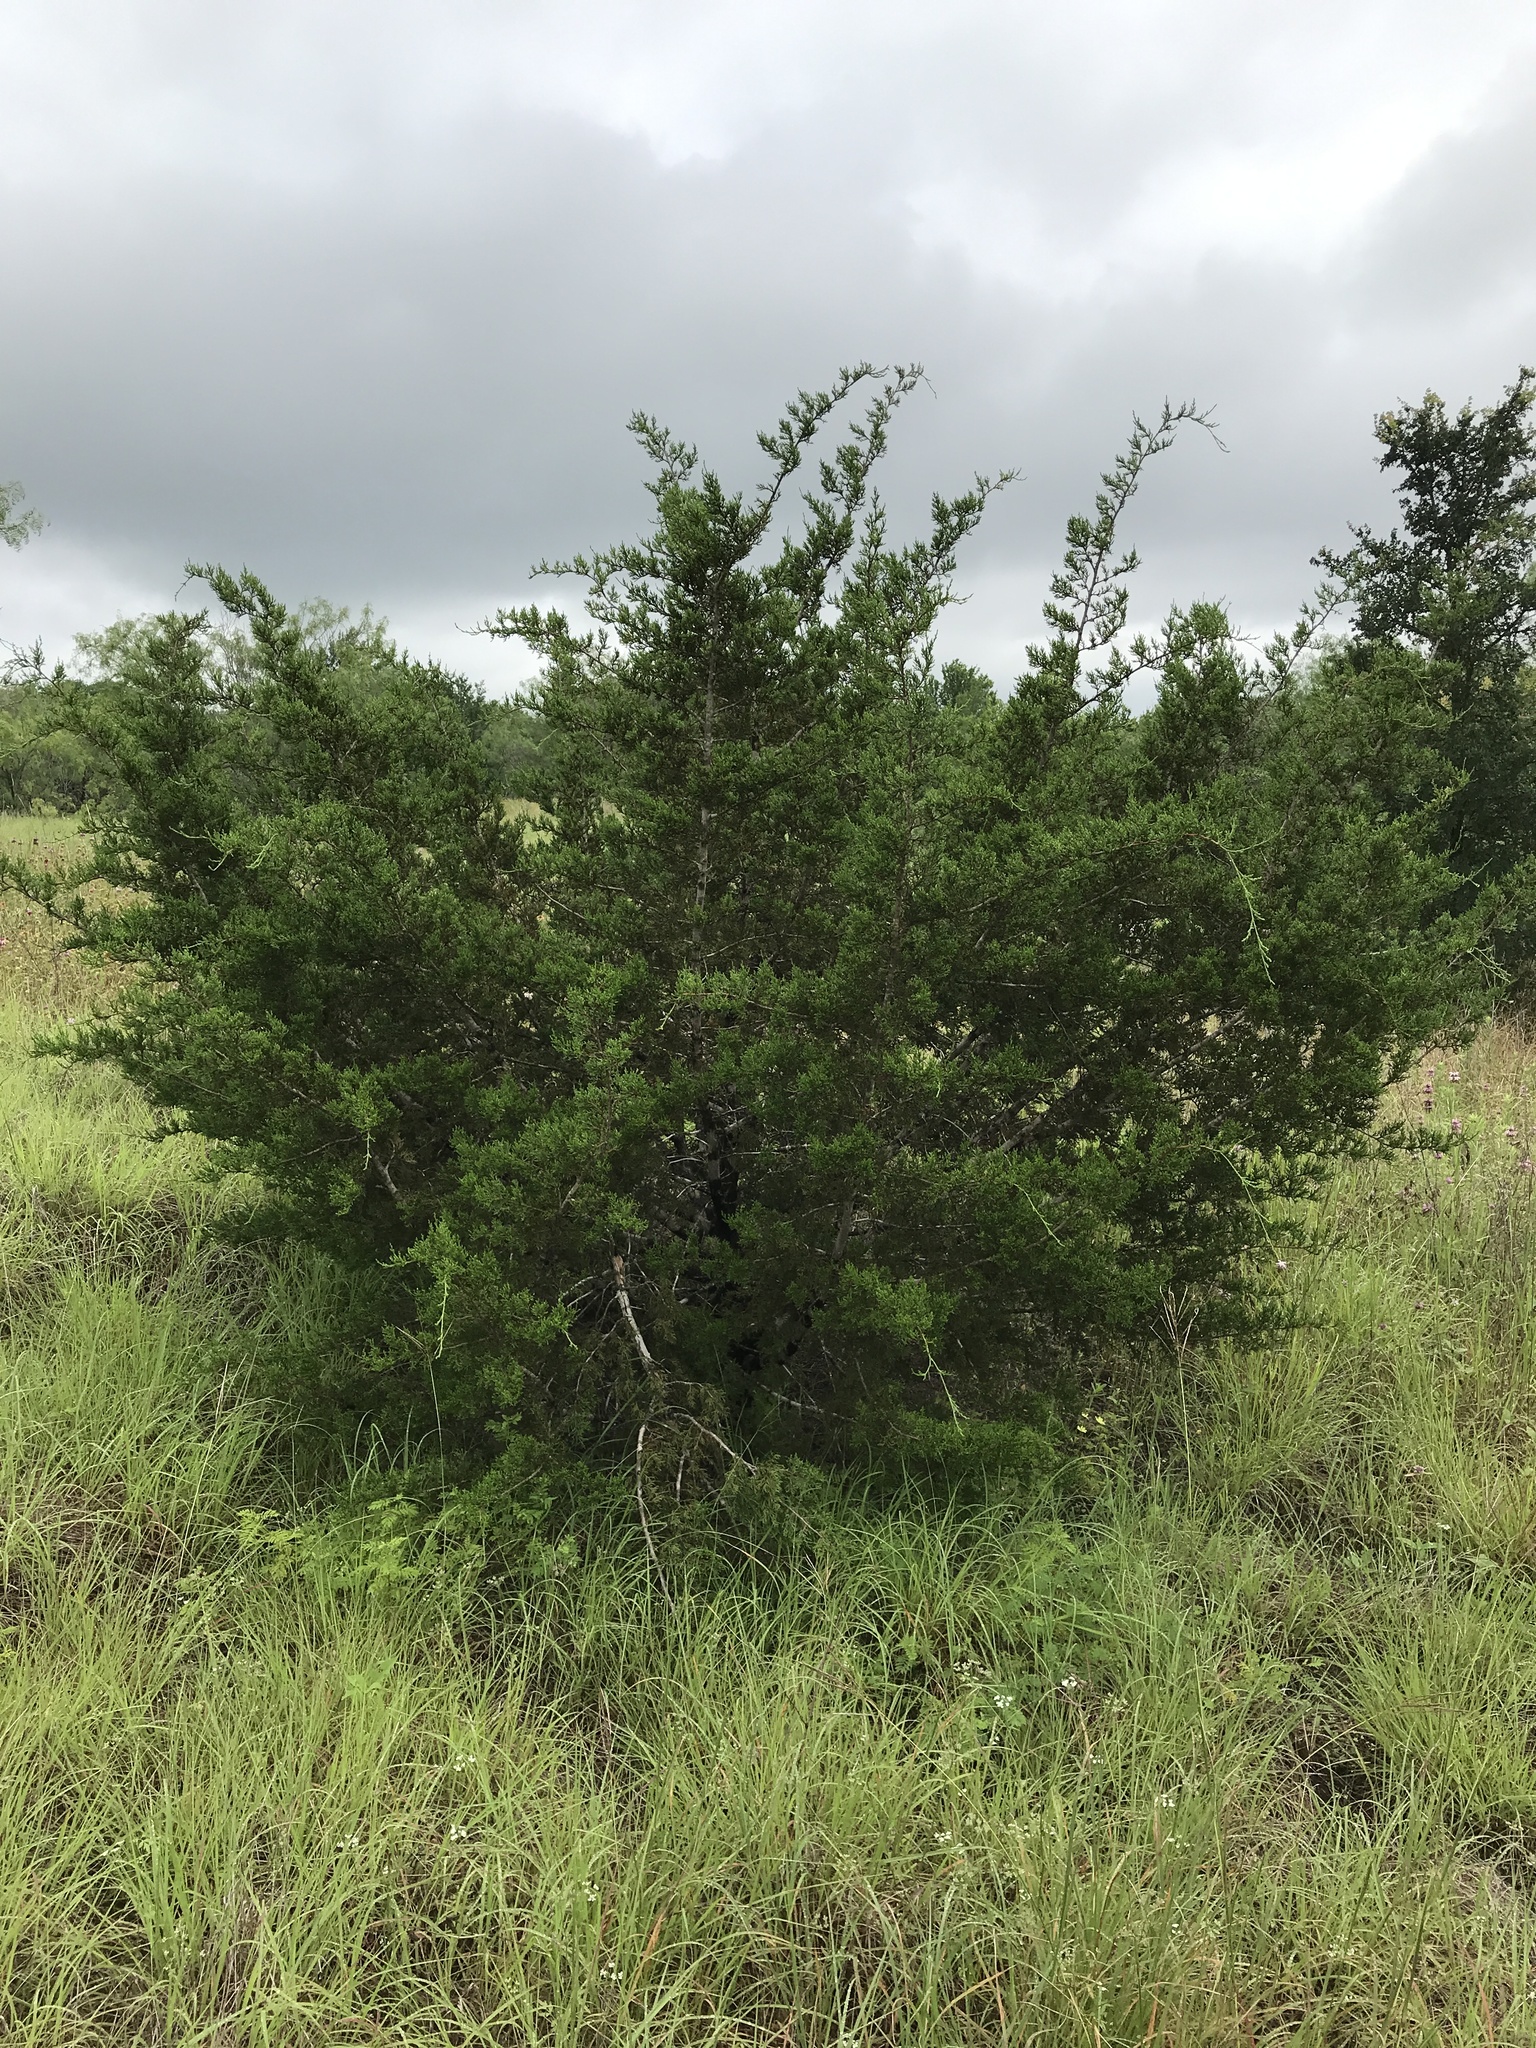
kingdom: Plantae
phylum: Tracheophyta
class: Pinopsida
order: Pinales
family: Cupressaceae
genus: Juniperus
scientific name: Juniperus ashei
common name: Mexican juniper
